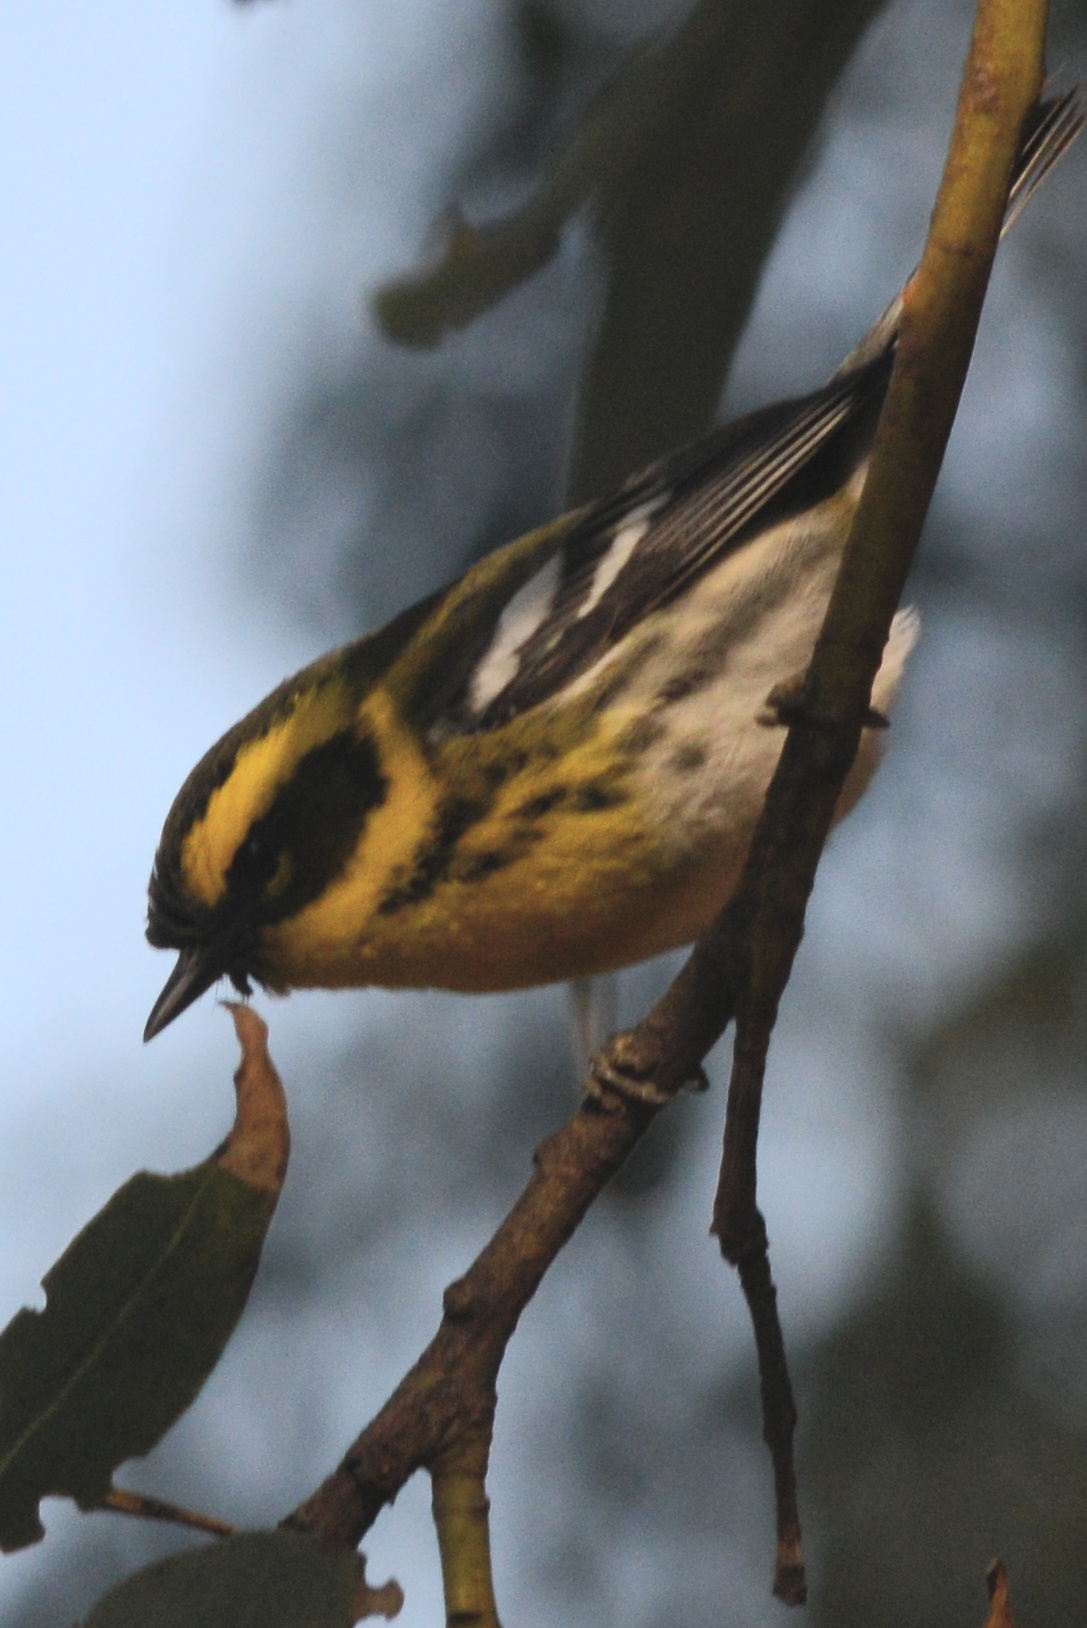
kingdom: Animalia
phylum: Chordata
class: Aves
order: Passeriformes
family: Parulidae
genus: Setophaga
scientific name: Setophaga townsendi
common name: Townsend's warbler
